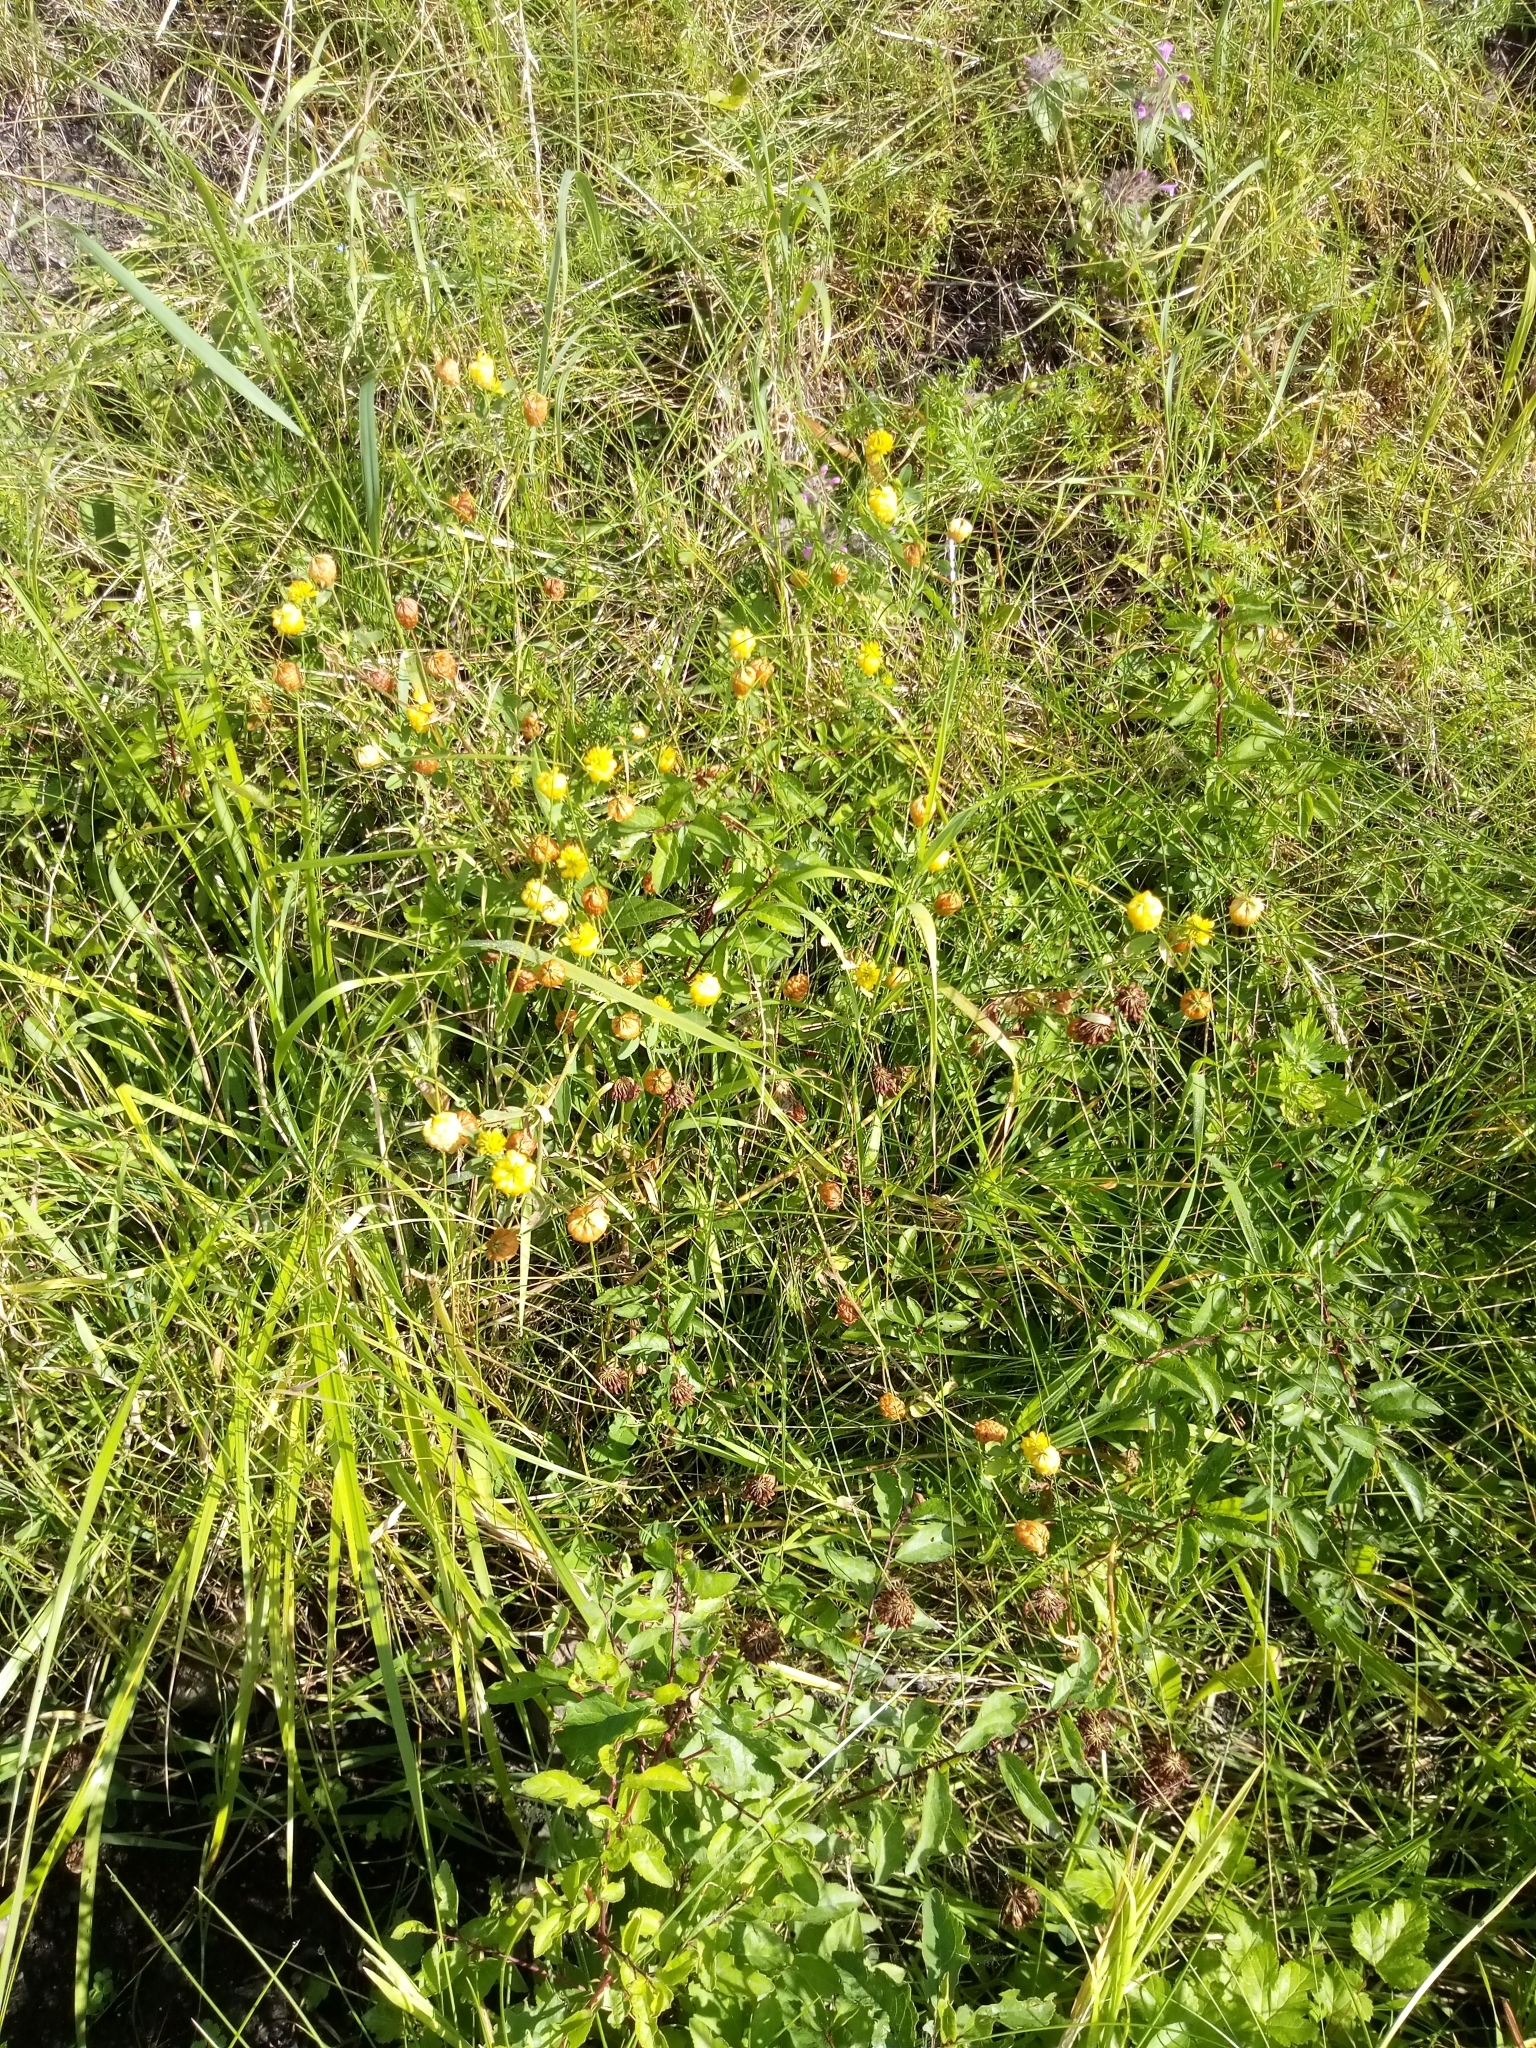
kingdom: Plantae
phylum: Tracheophyta
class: Magnoliopsida
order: Fabales
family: Fabaceae
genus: Trifolium
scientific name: Trifolium aureum
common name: Golden clover
